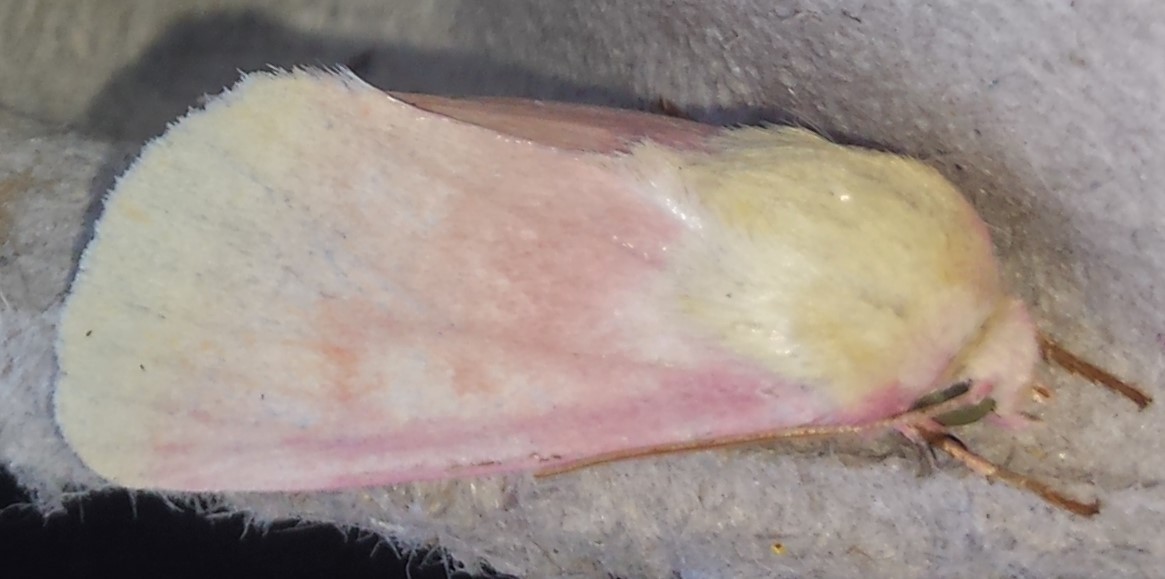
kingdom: Animalia
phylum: Arthropoda
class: Insecta
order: Lepidoptera
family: Noctuidae
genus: Schinia
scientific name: Schinia florida
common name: Primrose moth
